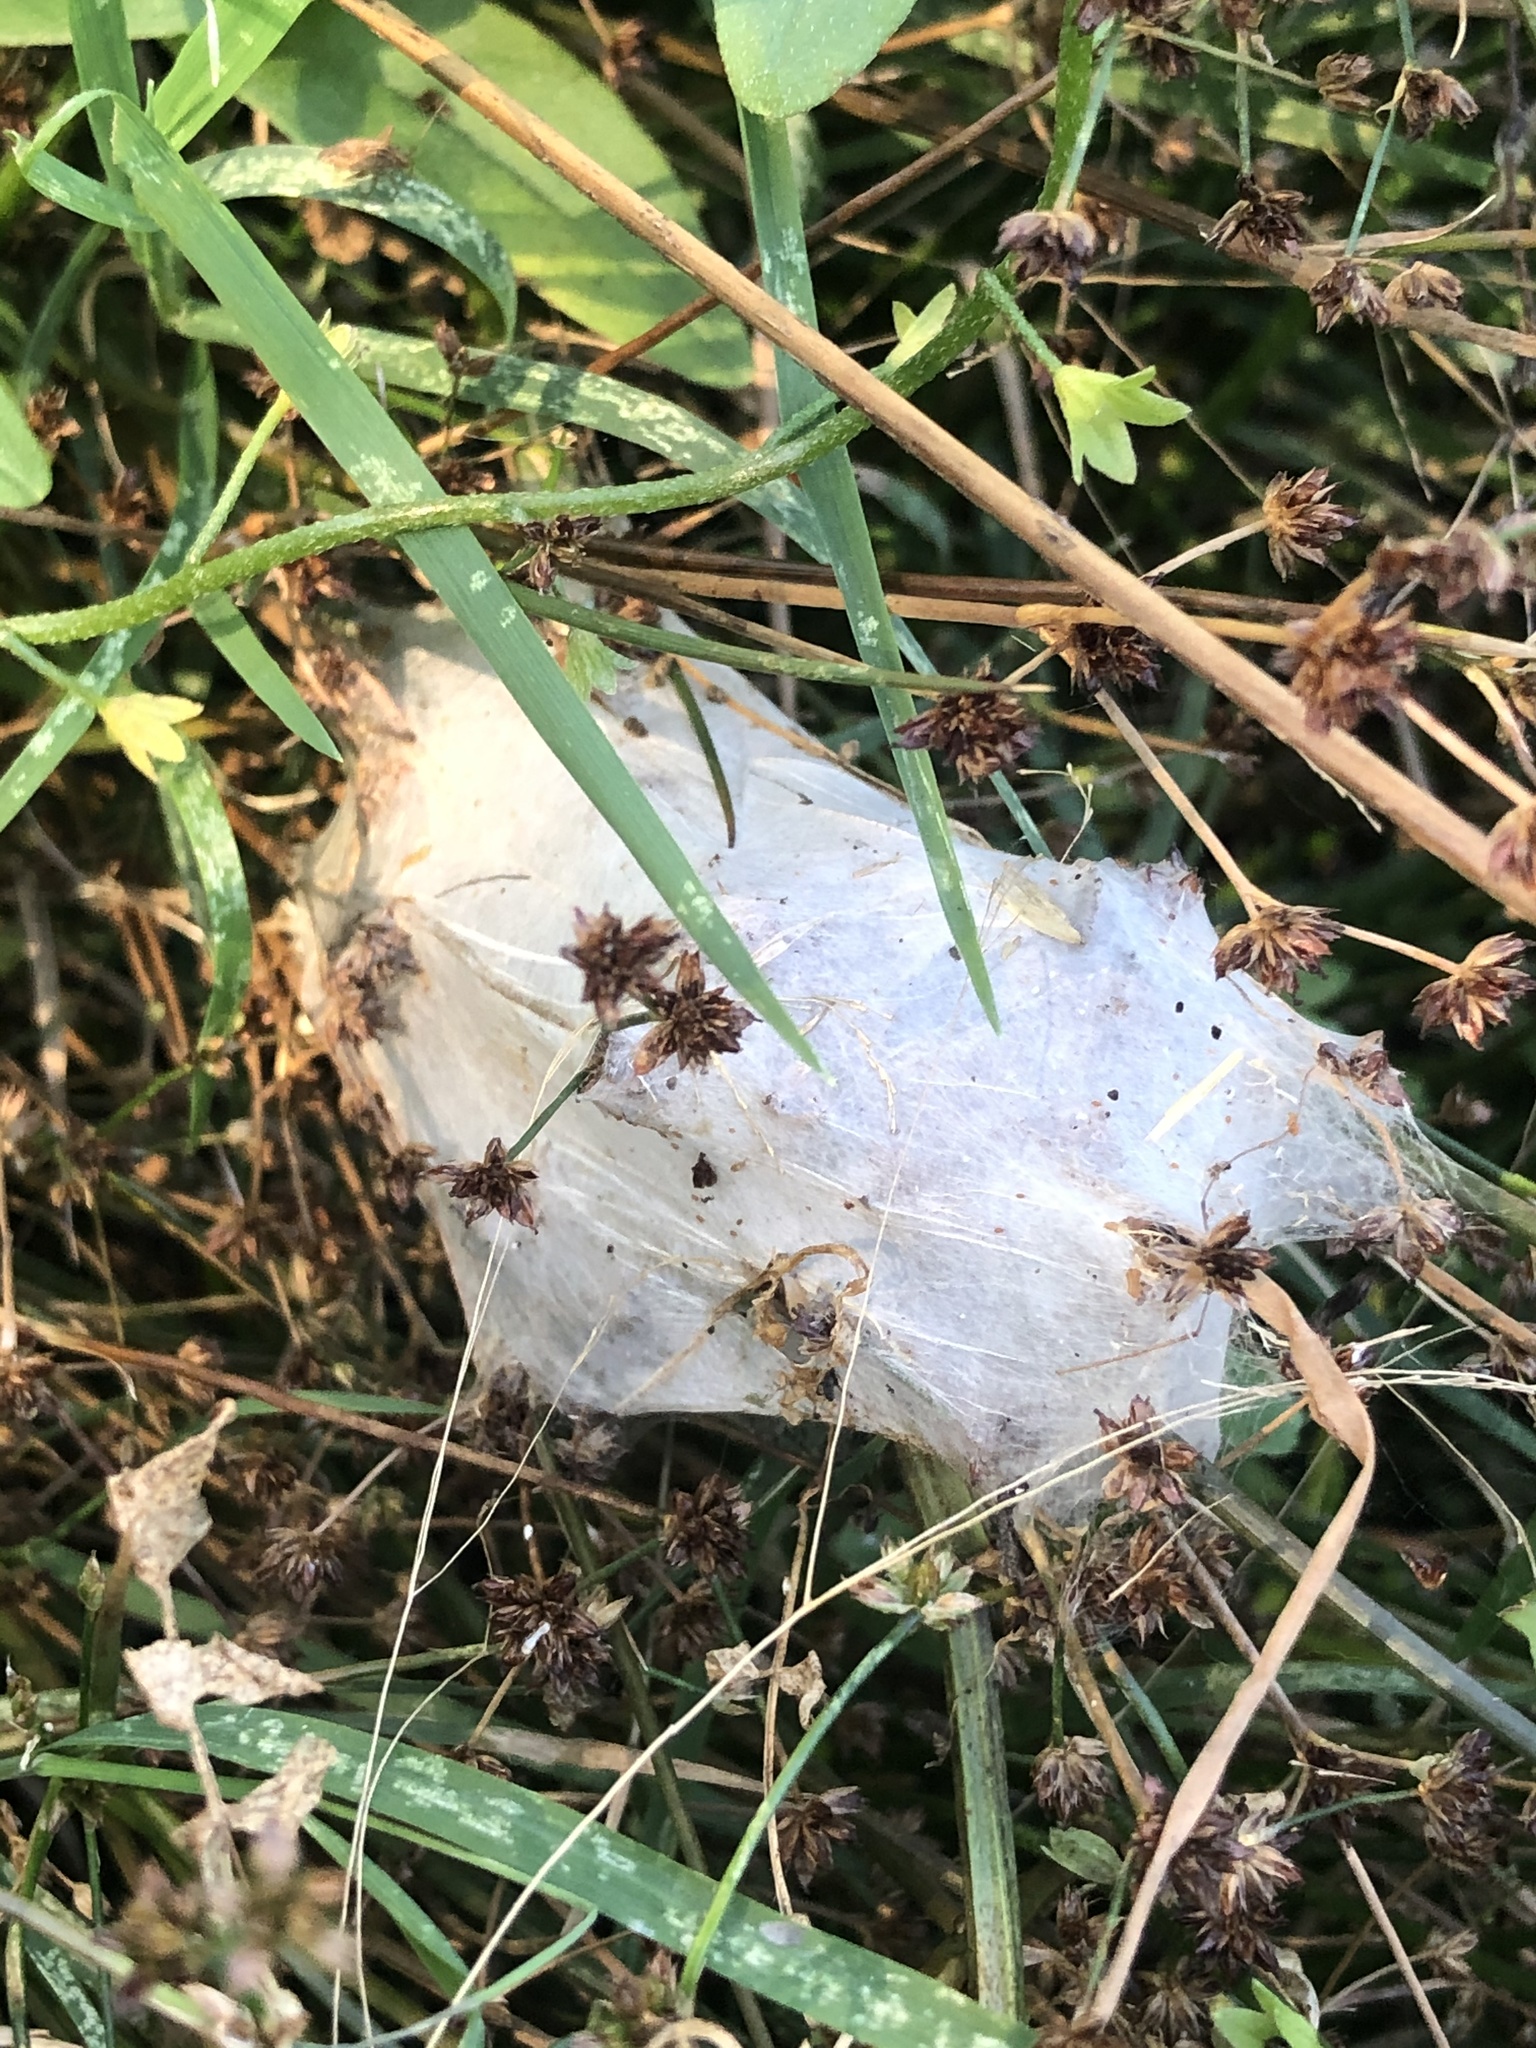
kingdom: Animalia
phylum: Arthropoda
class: Arachnida
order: Araneae
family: Pisauridae
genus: Dolomedes
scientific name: Dolomedes minor
